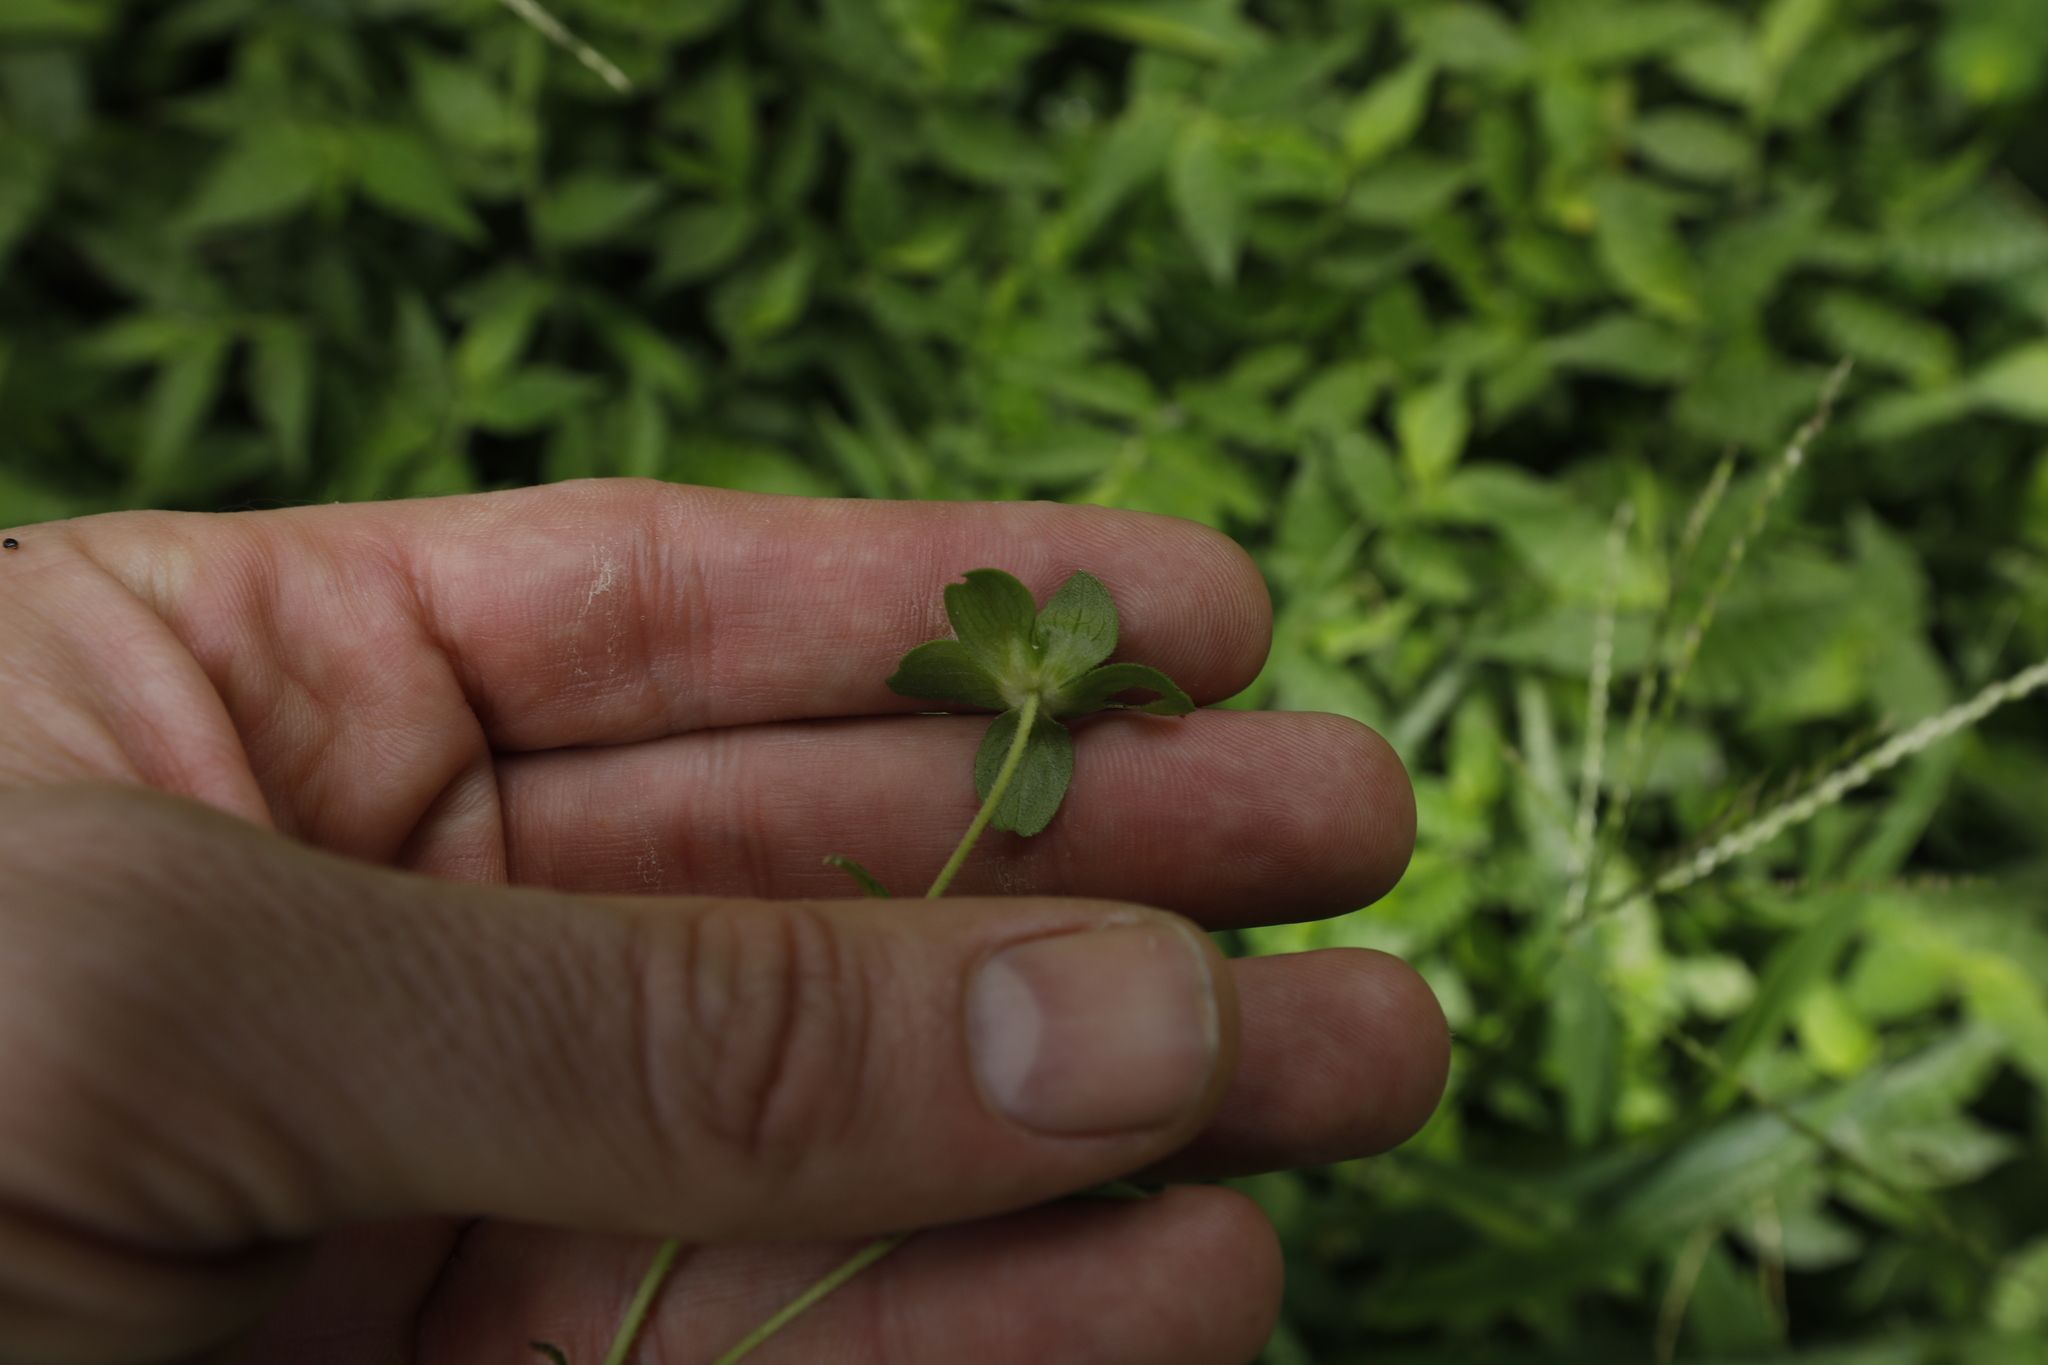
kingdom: Plantae
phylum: Tracheophyta
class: Magnoliopsida
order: Asterales
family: Asteraceae
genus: Melampodium
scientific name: Melampodium perfoliatum
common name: Perfoliate blackfoot
